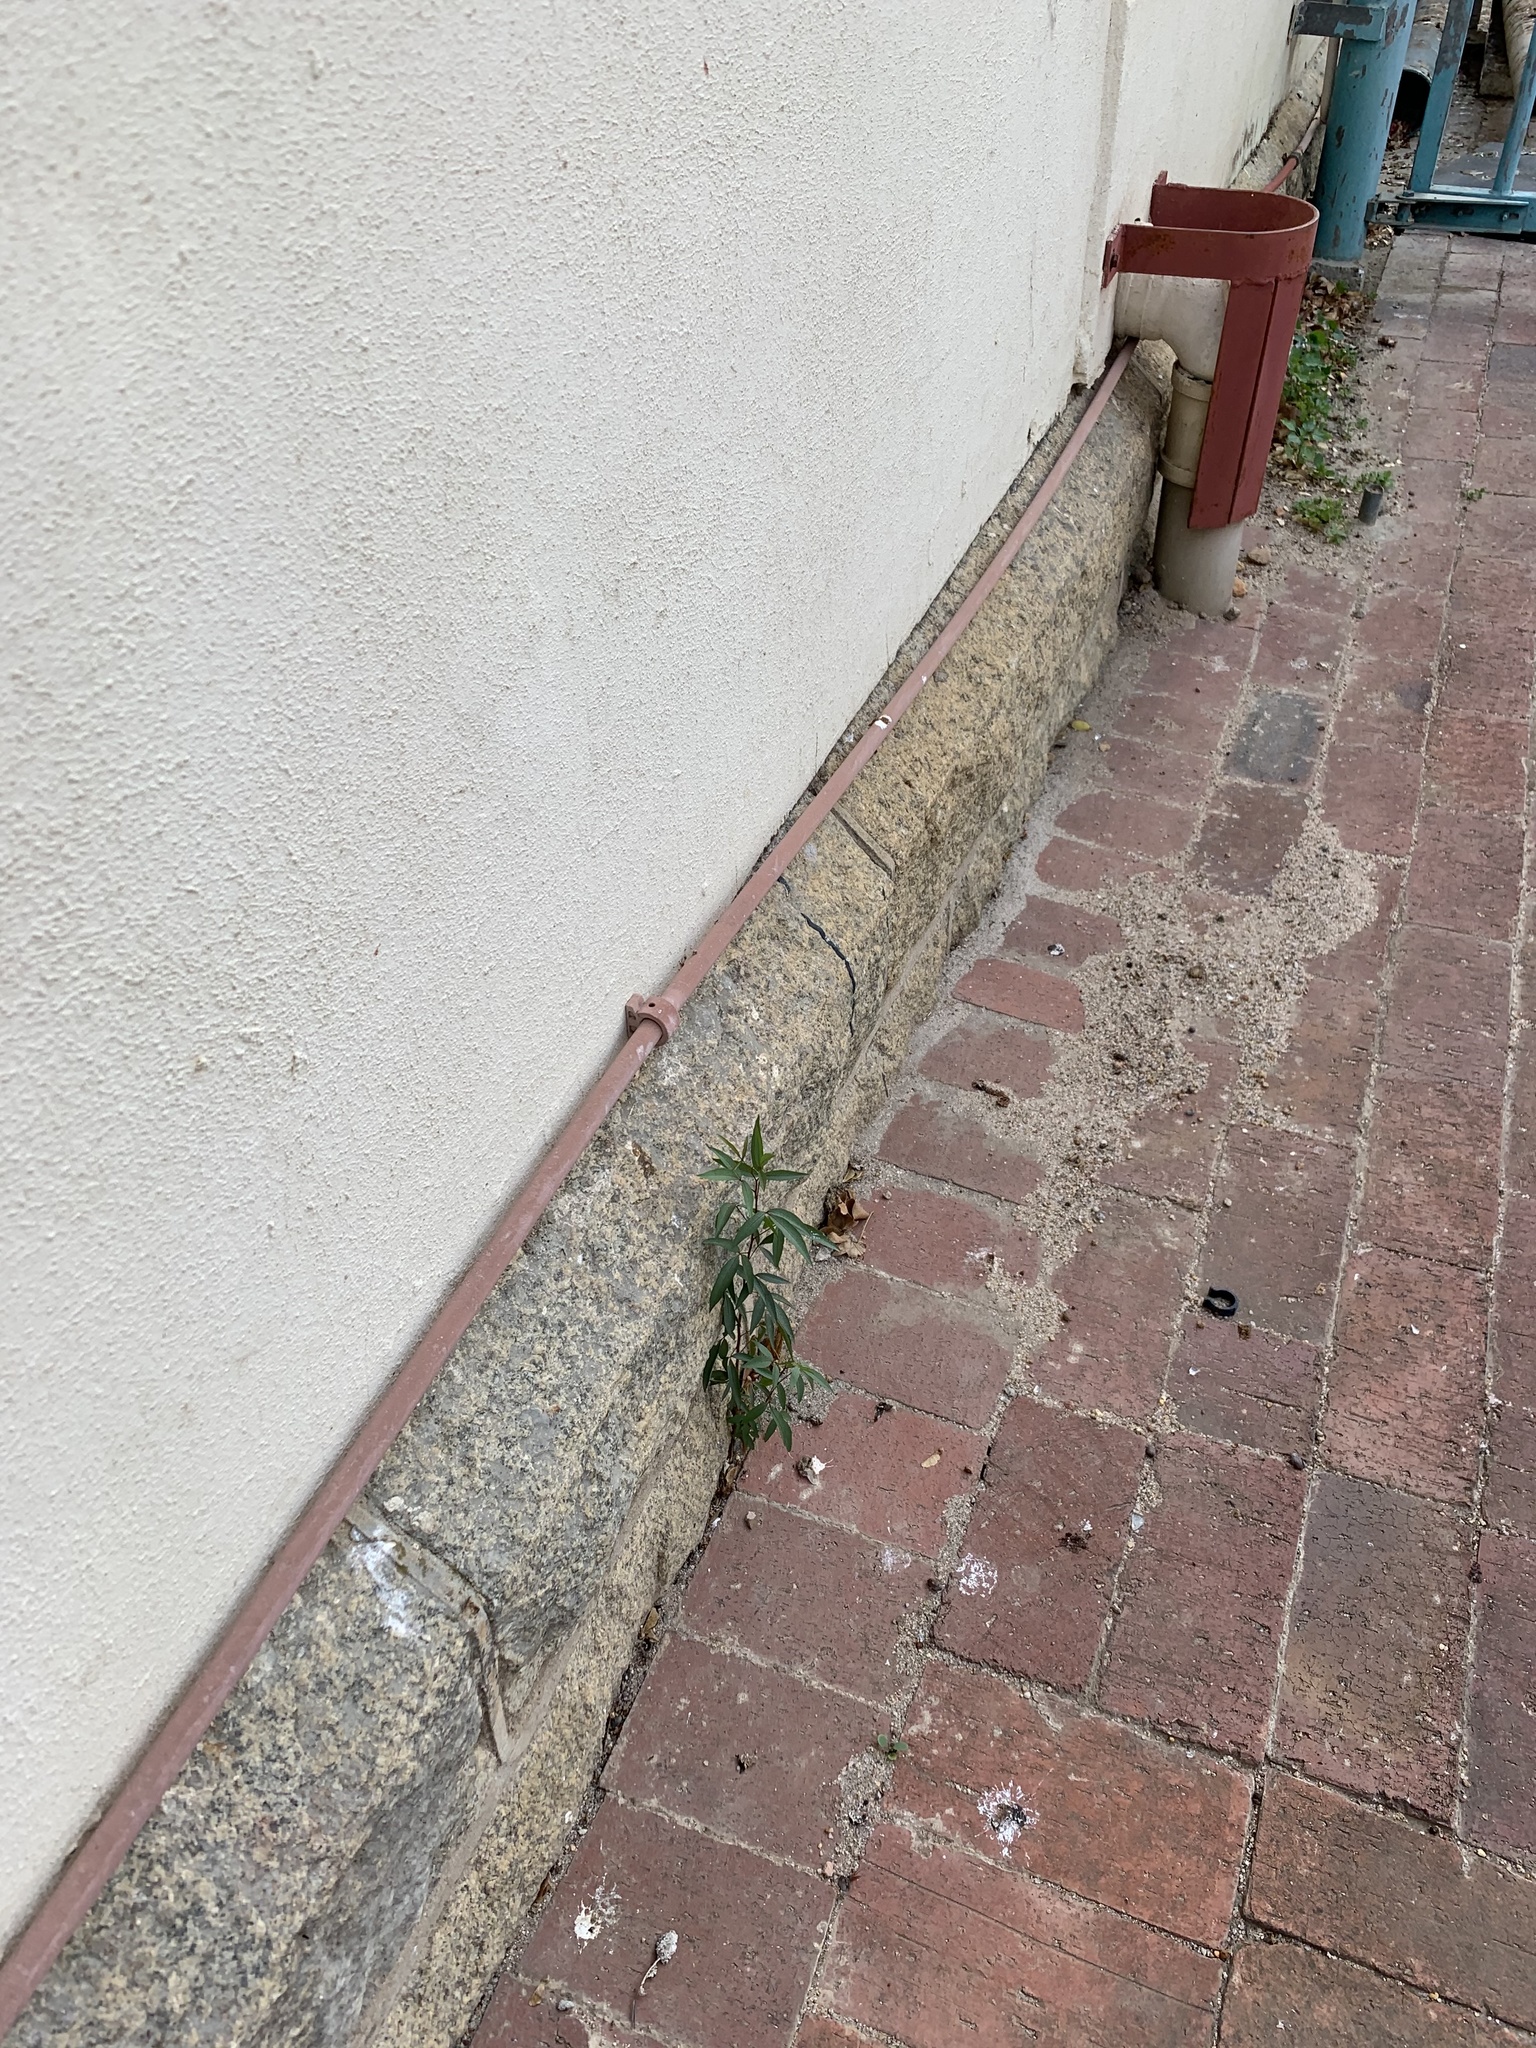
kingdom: Plantae
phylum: Tracheophyta
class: Magnoliopsida
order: Sapindales
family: Anacardiaceae
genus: Searsia
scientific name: Searsia pendulina
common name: White karee
